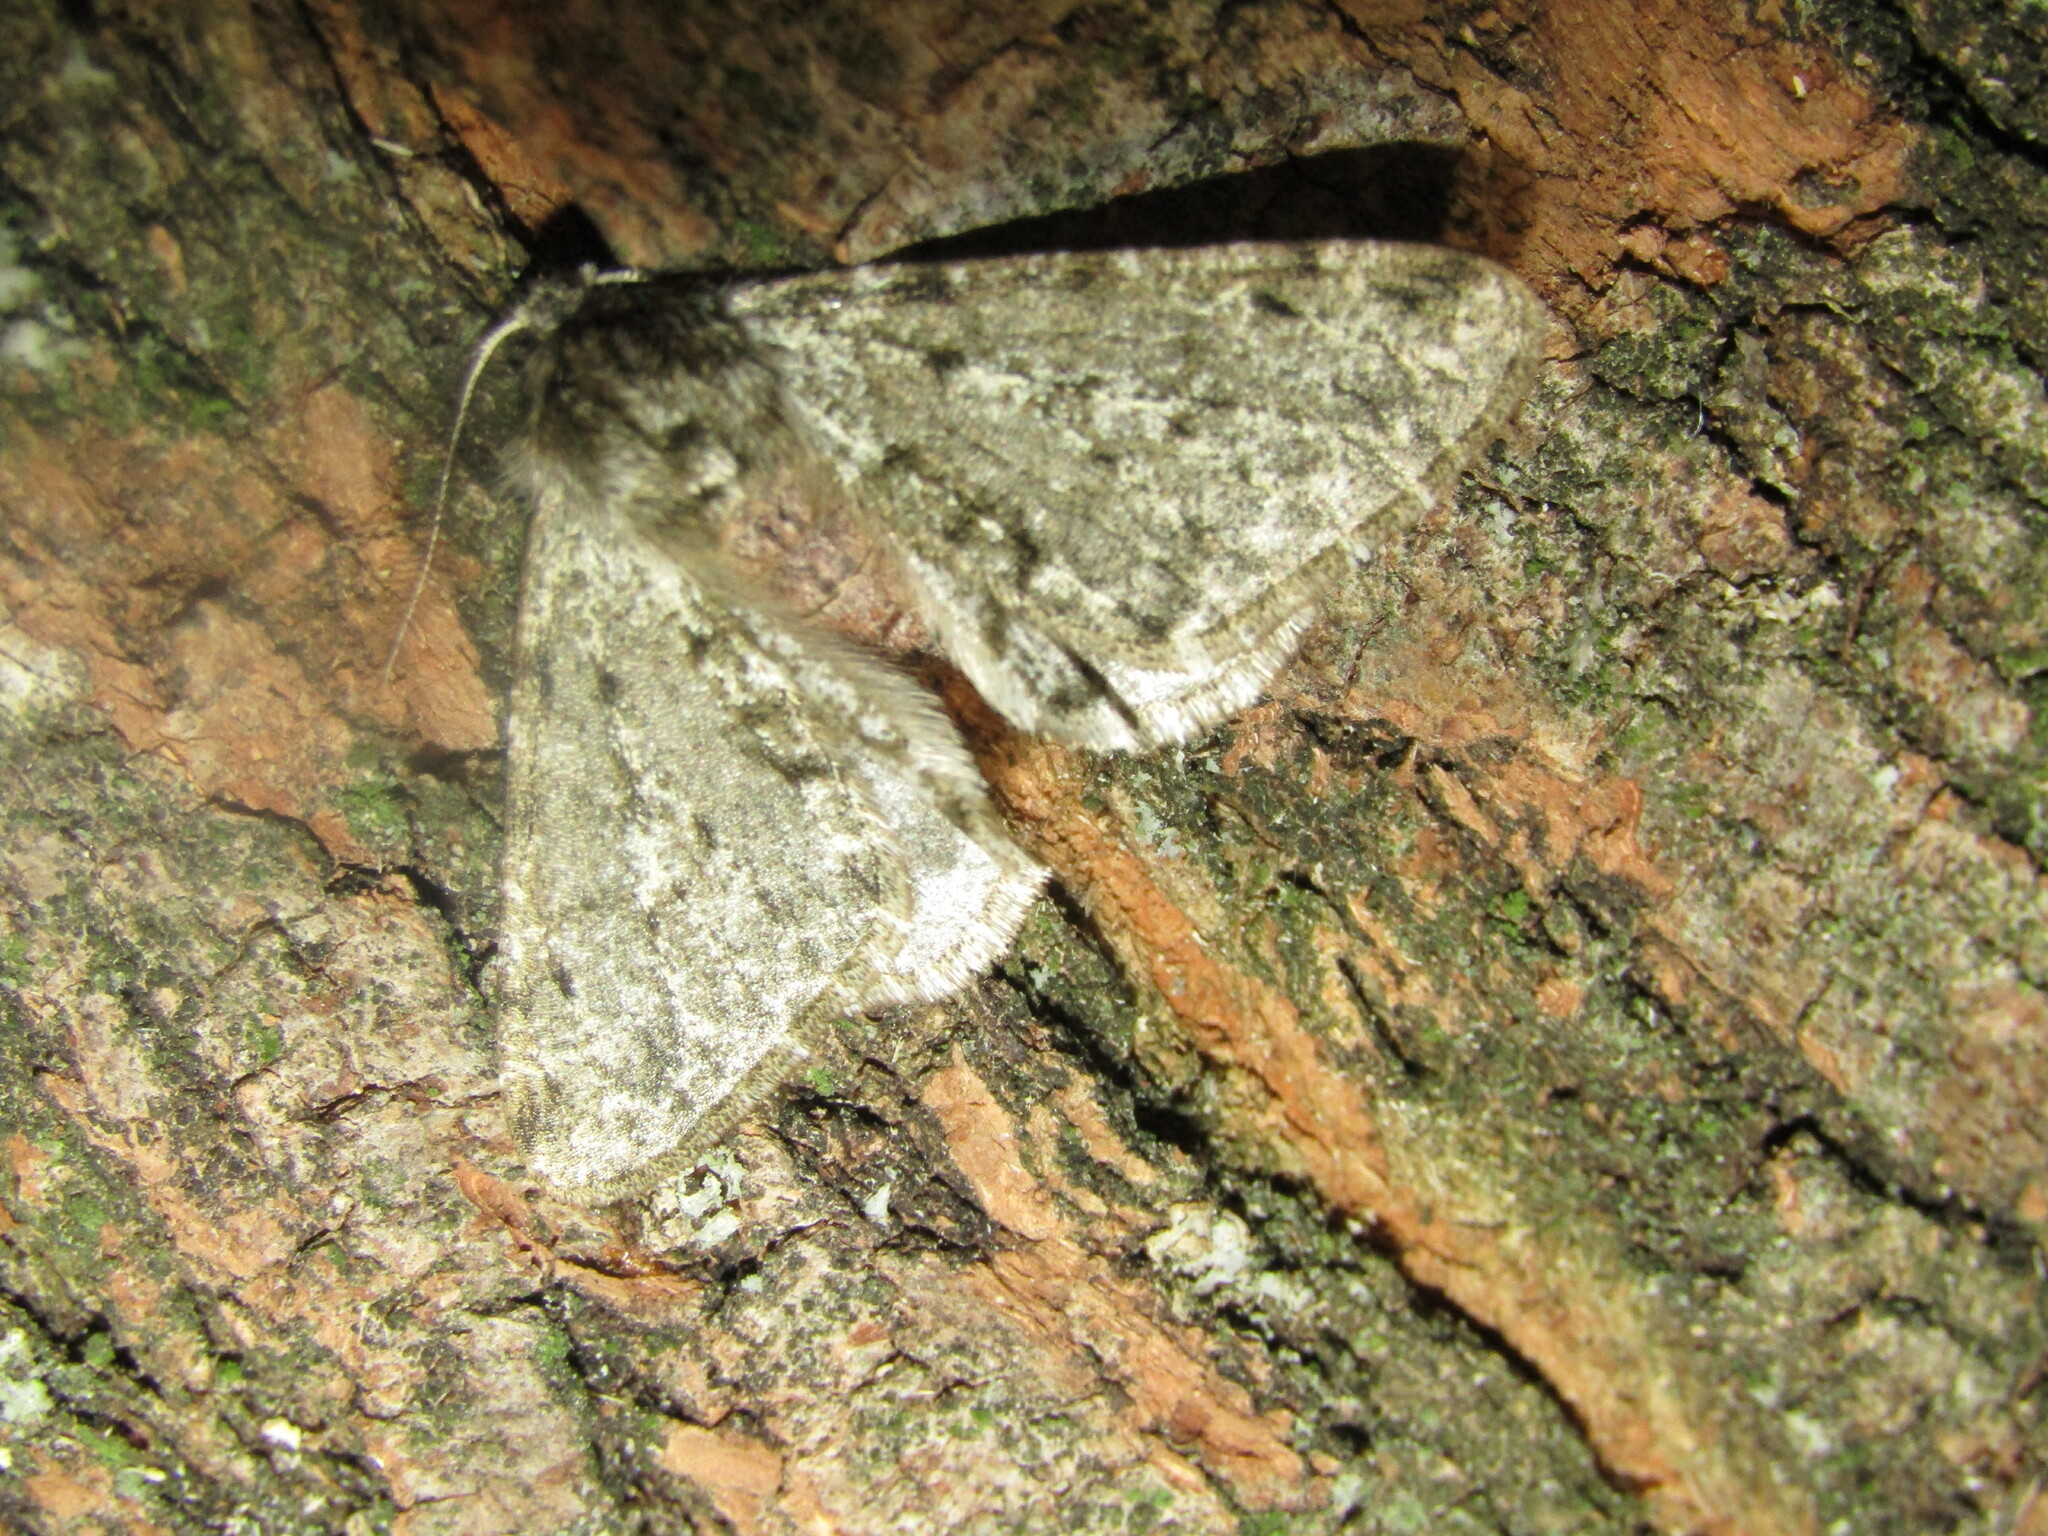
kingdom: Animalia
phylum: Arthropoda
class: Insecta
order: Lepidoptera
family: Geometridae
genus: Phigalia
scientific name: Phigalia pilosaria
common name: Pale brindled beauty
